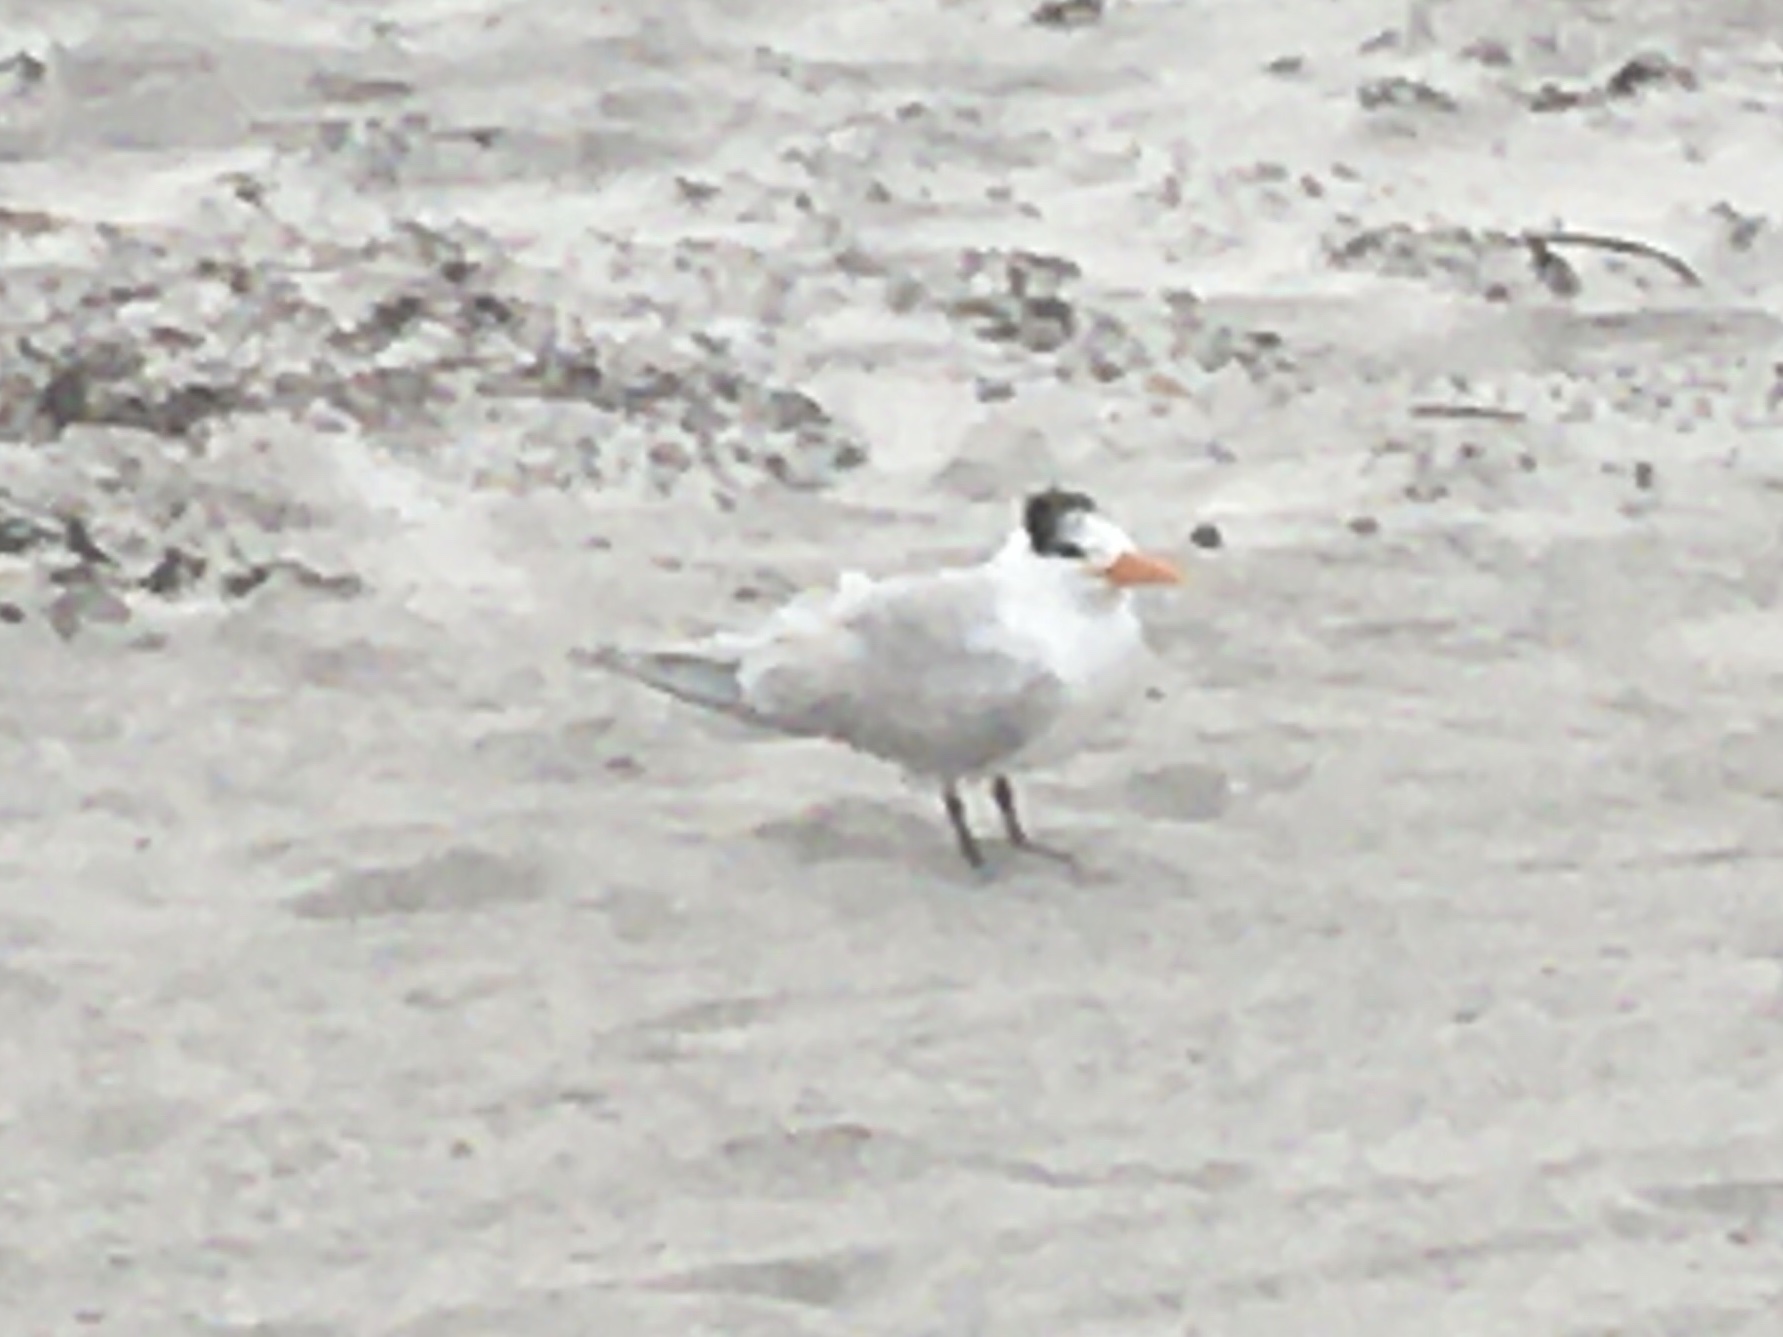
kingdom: Animalia
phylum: Chordata
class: Aves
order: Charadriiformes
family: Laridae
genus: Thalasseus
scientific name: Thalasseus maximus
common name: Royal tern
